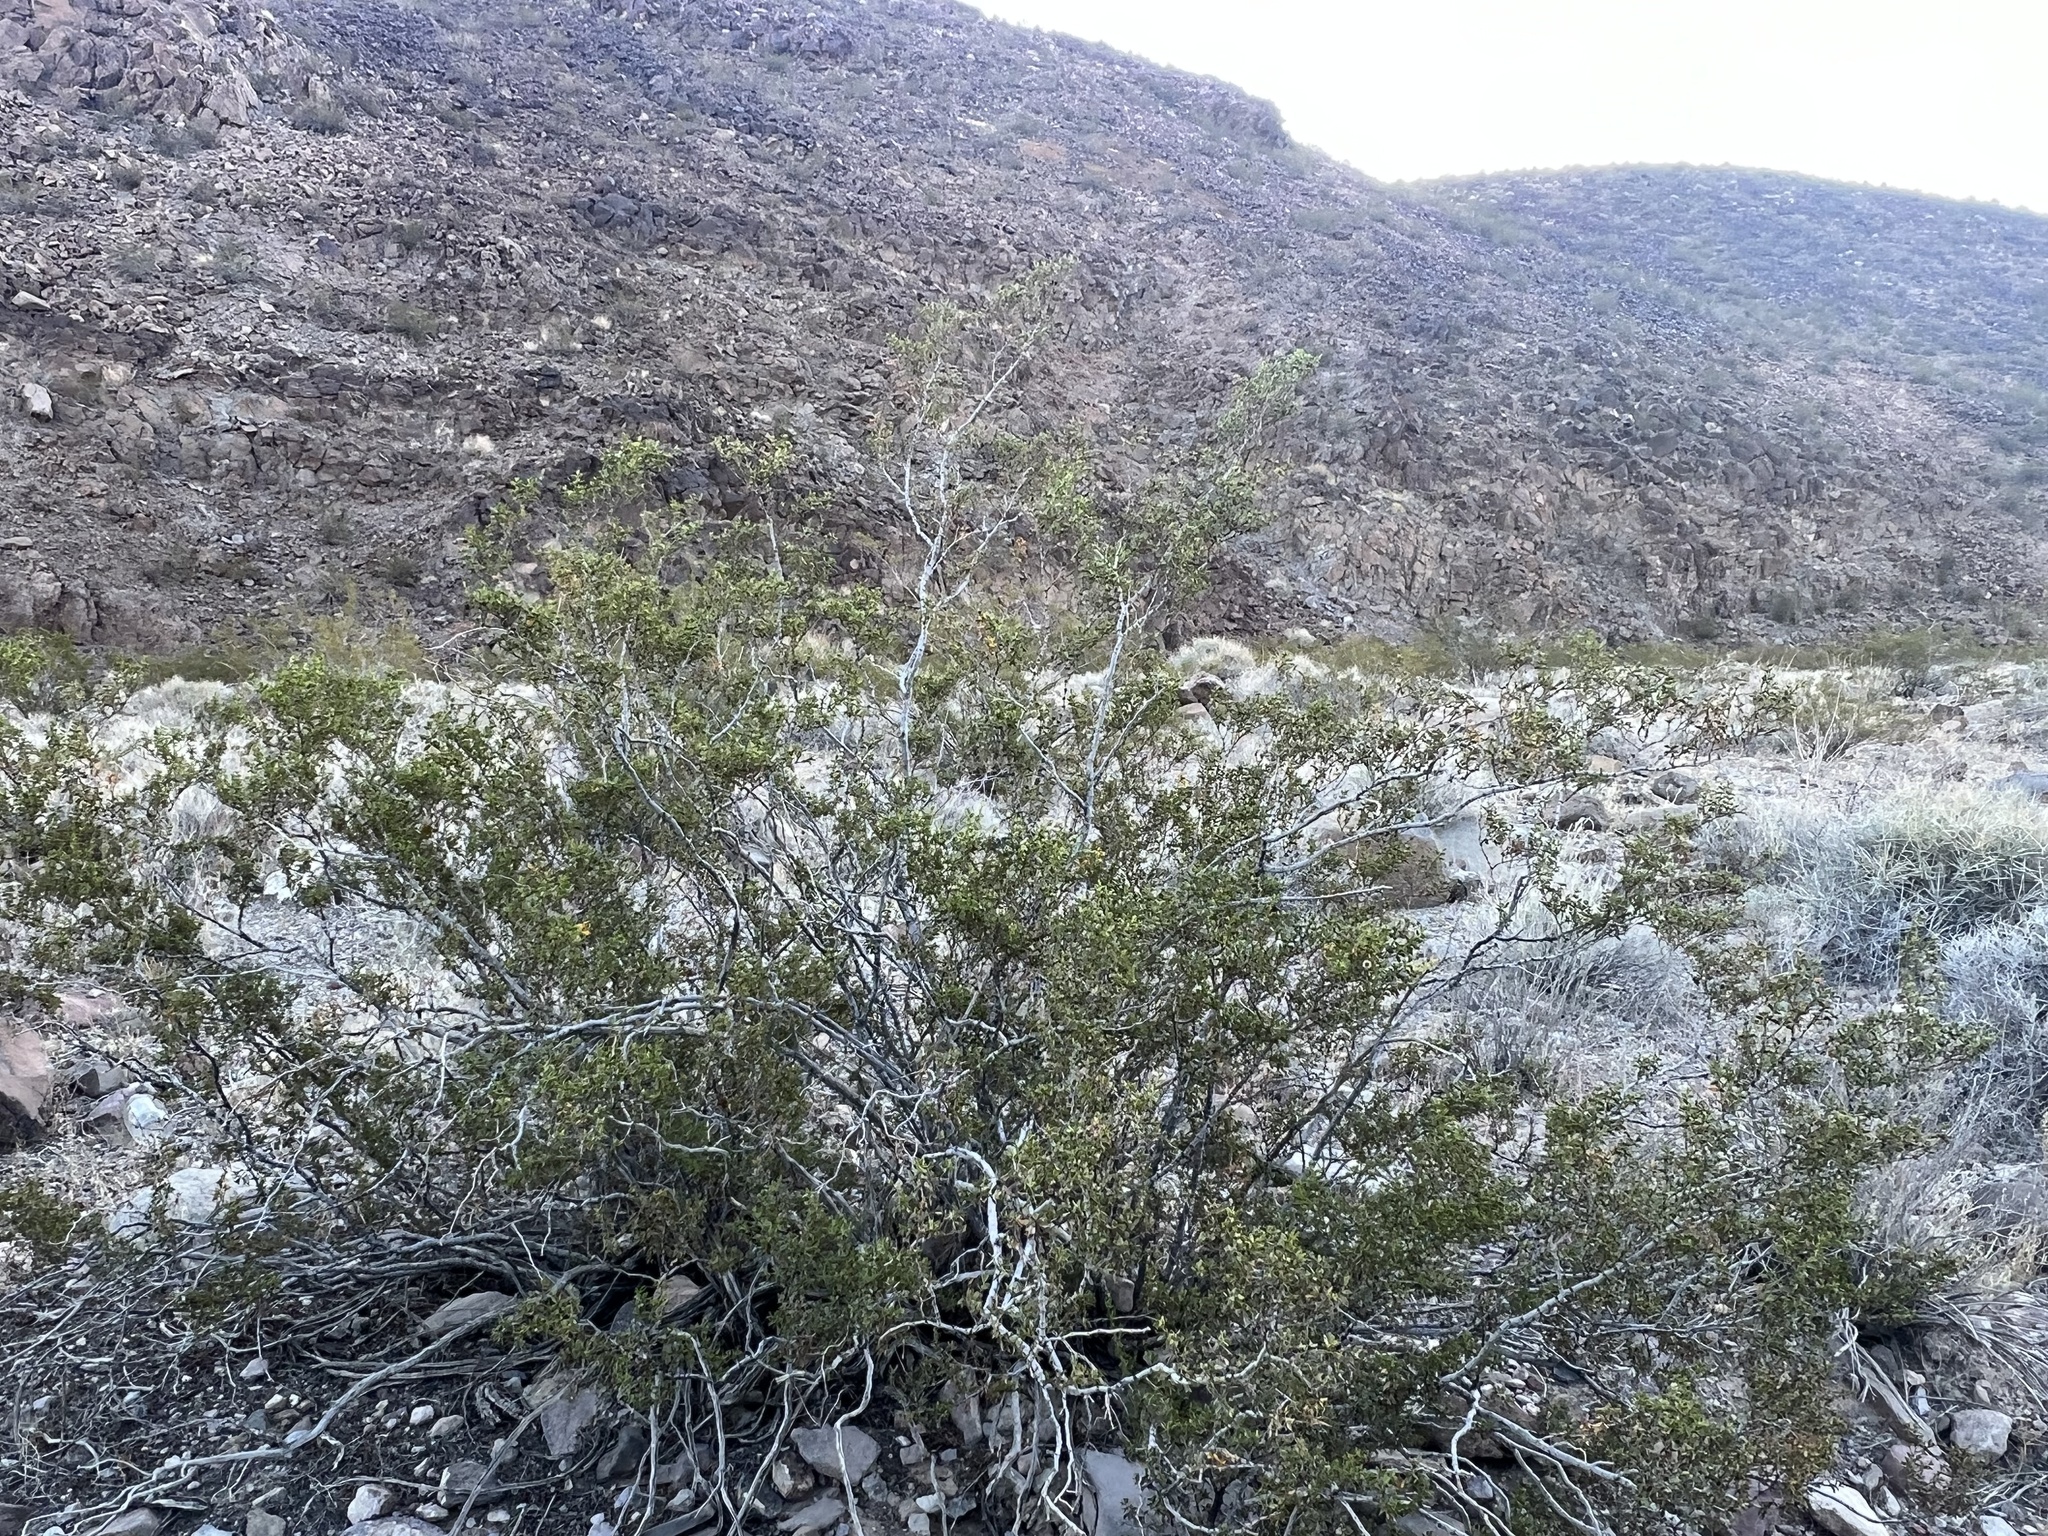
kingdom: Plantae
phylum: Tracheophyta
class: Magnoliopsida
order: Zygophyllales
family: Zygophyllaceae
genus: Larrea
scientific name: Larrea tridentata
